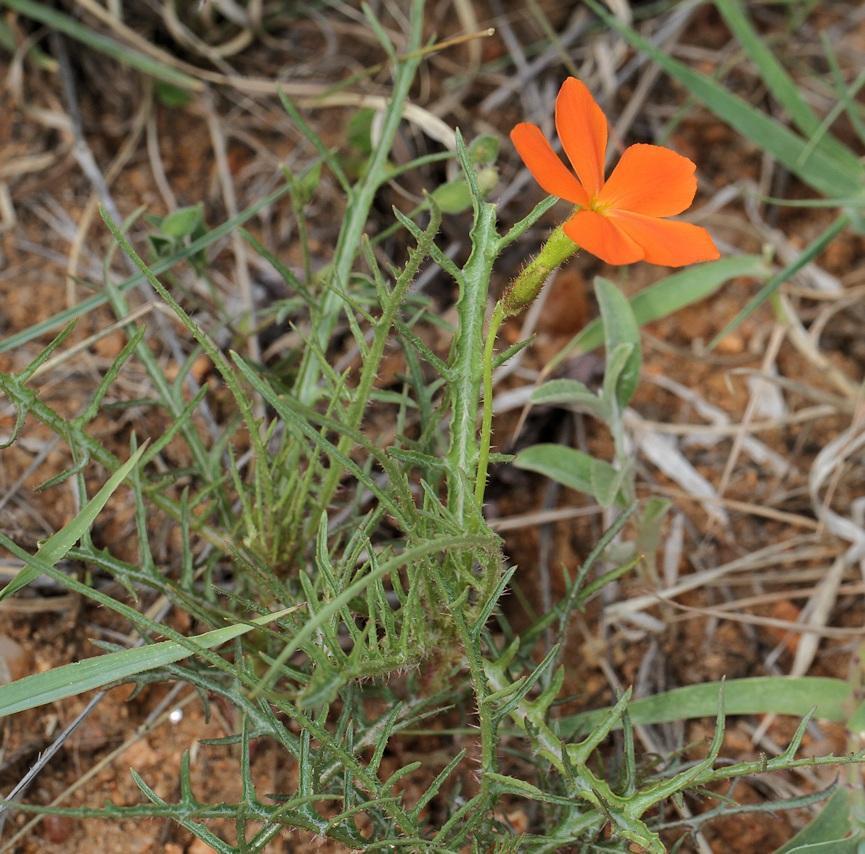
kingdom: Plantae
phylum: Tracheophyta
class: Magnoliopsida
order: Malpighiales
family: Turneraceae
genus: Tricliceras
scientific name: Tricliceras lacerata
